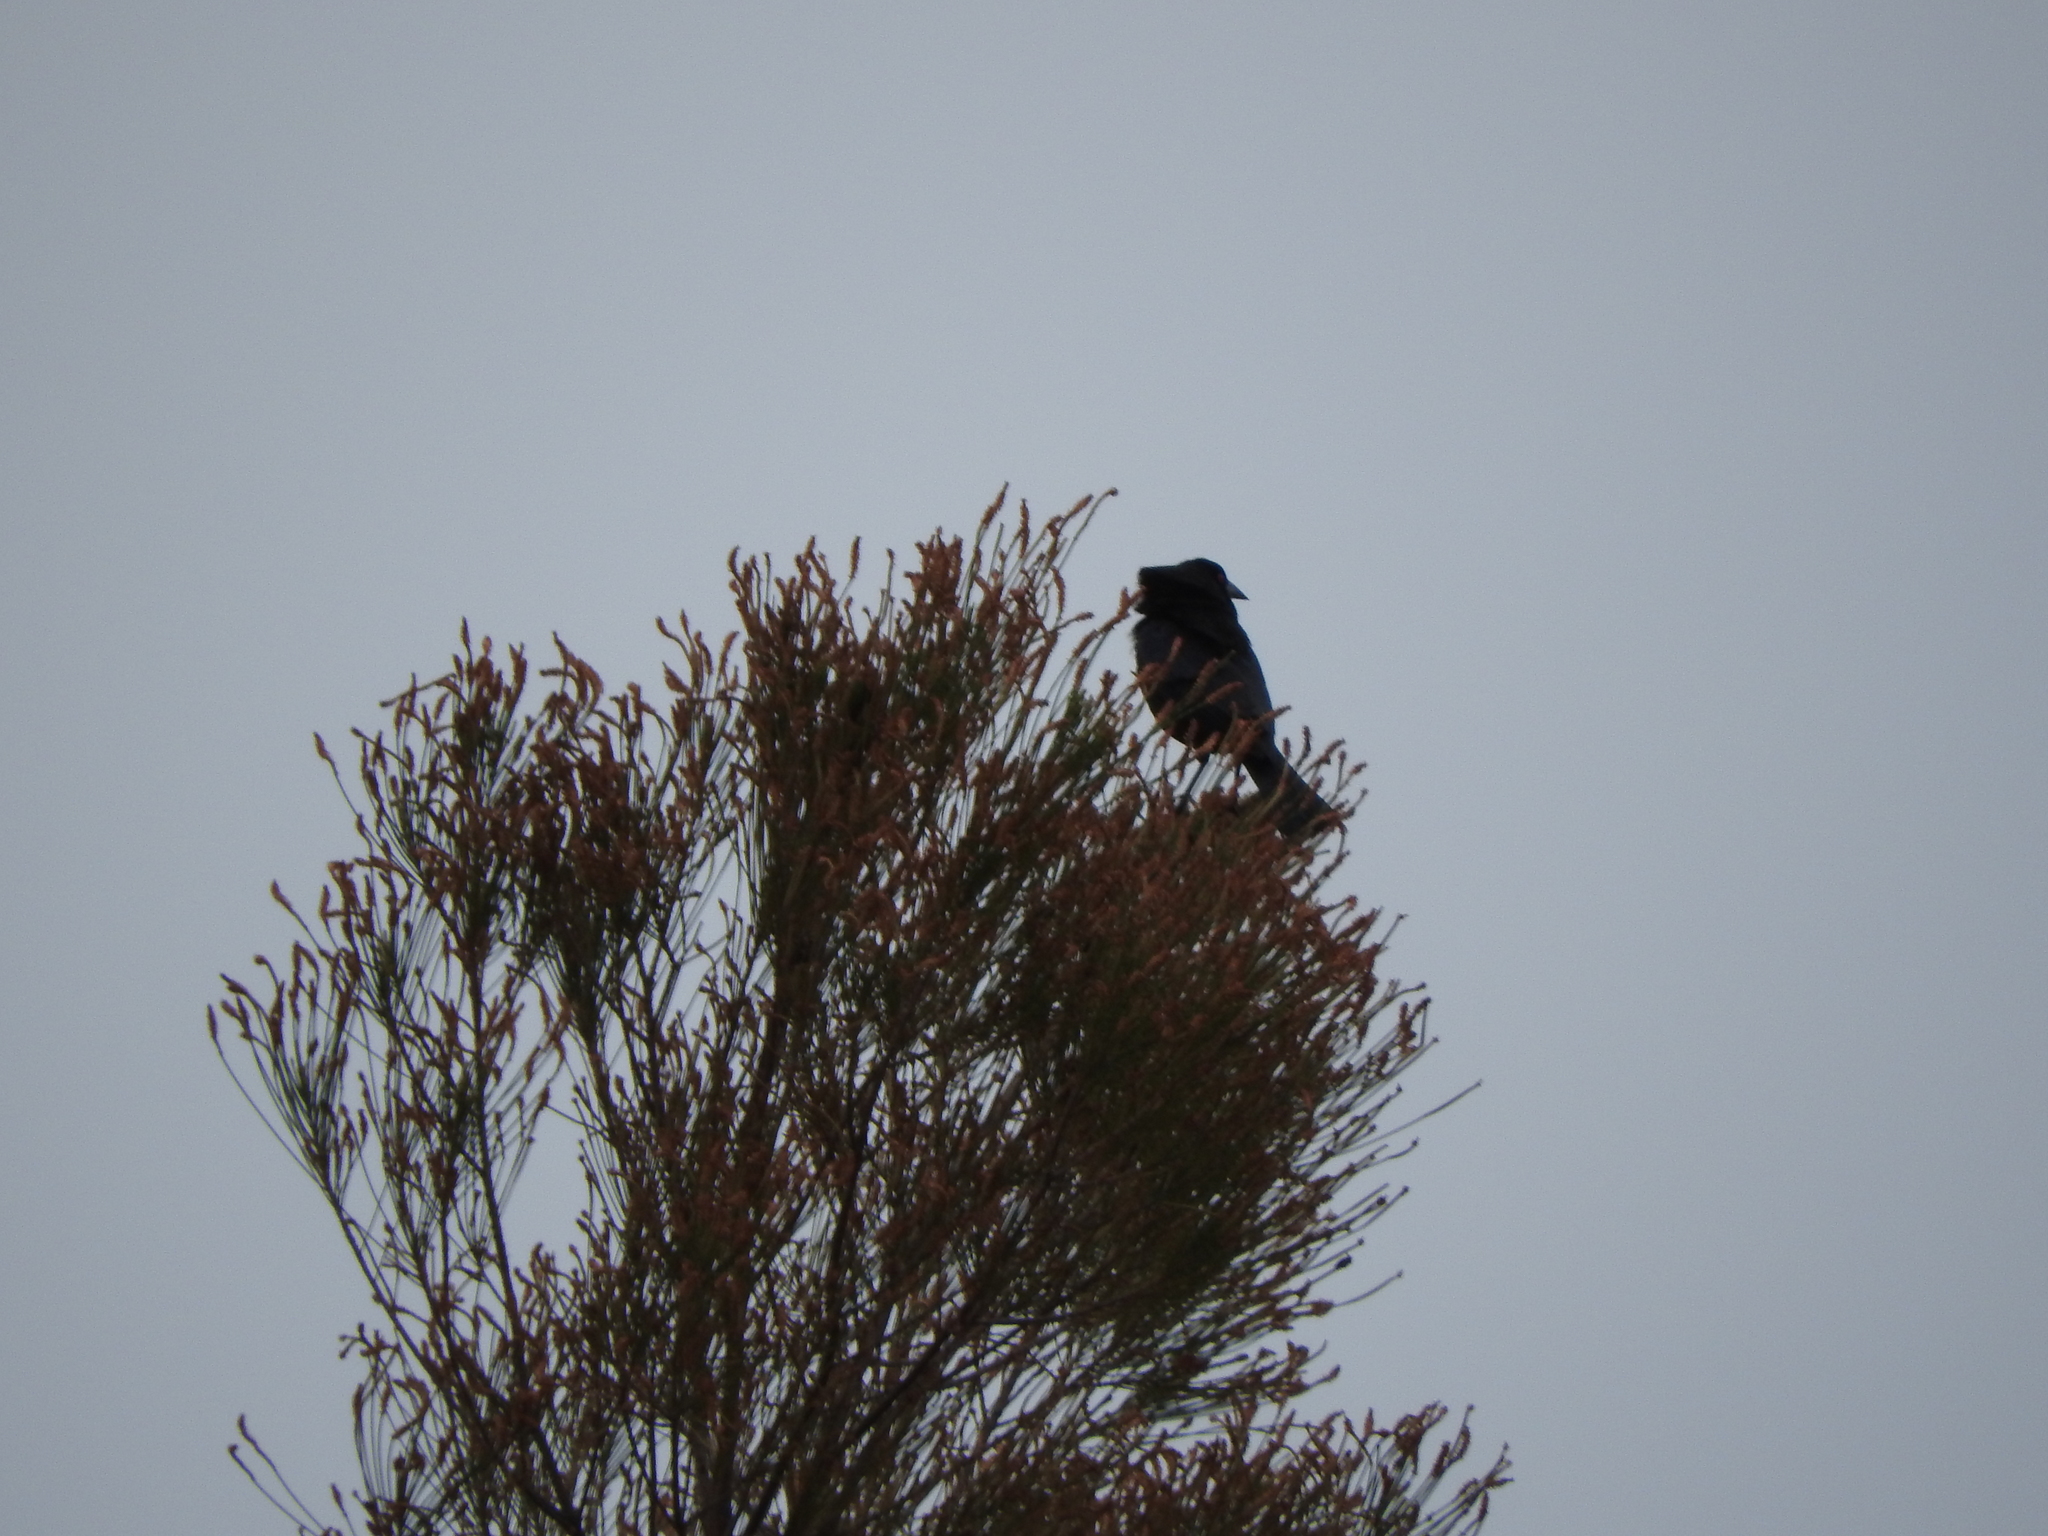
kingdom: Animalia
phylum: Chordata
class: Aves
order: Passeriformes
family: Icteridae
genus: Molothrus
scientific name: Molothrus aeneus
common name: Bronzed cowbird
